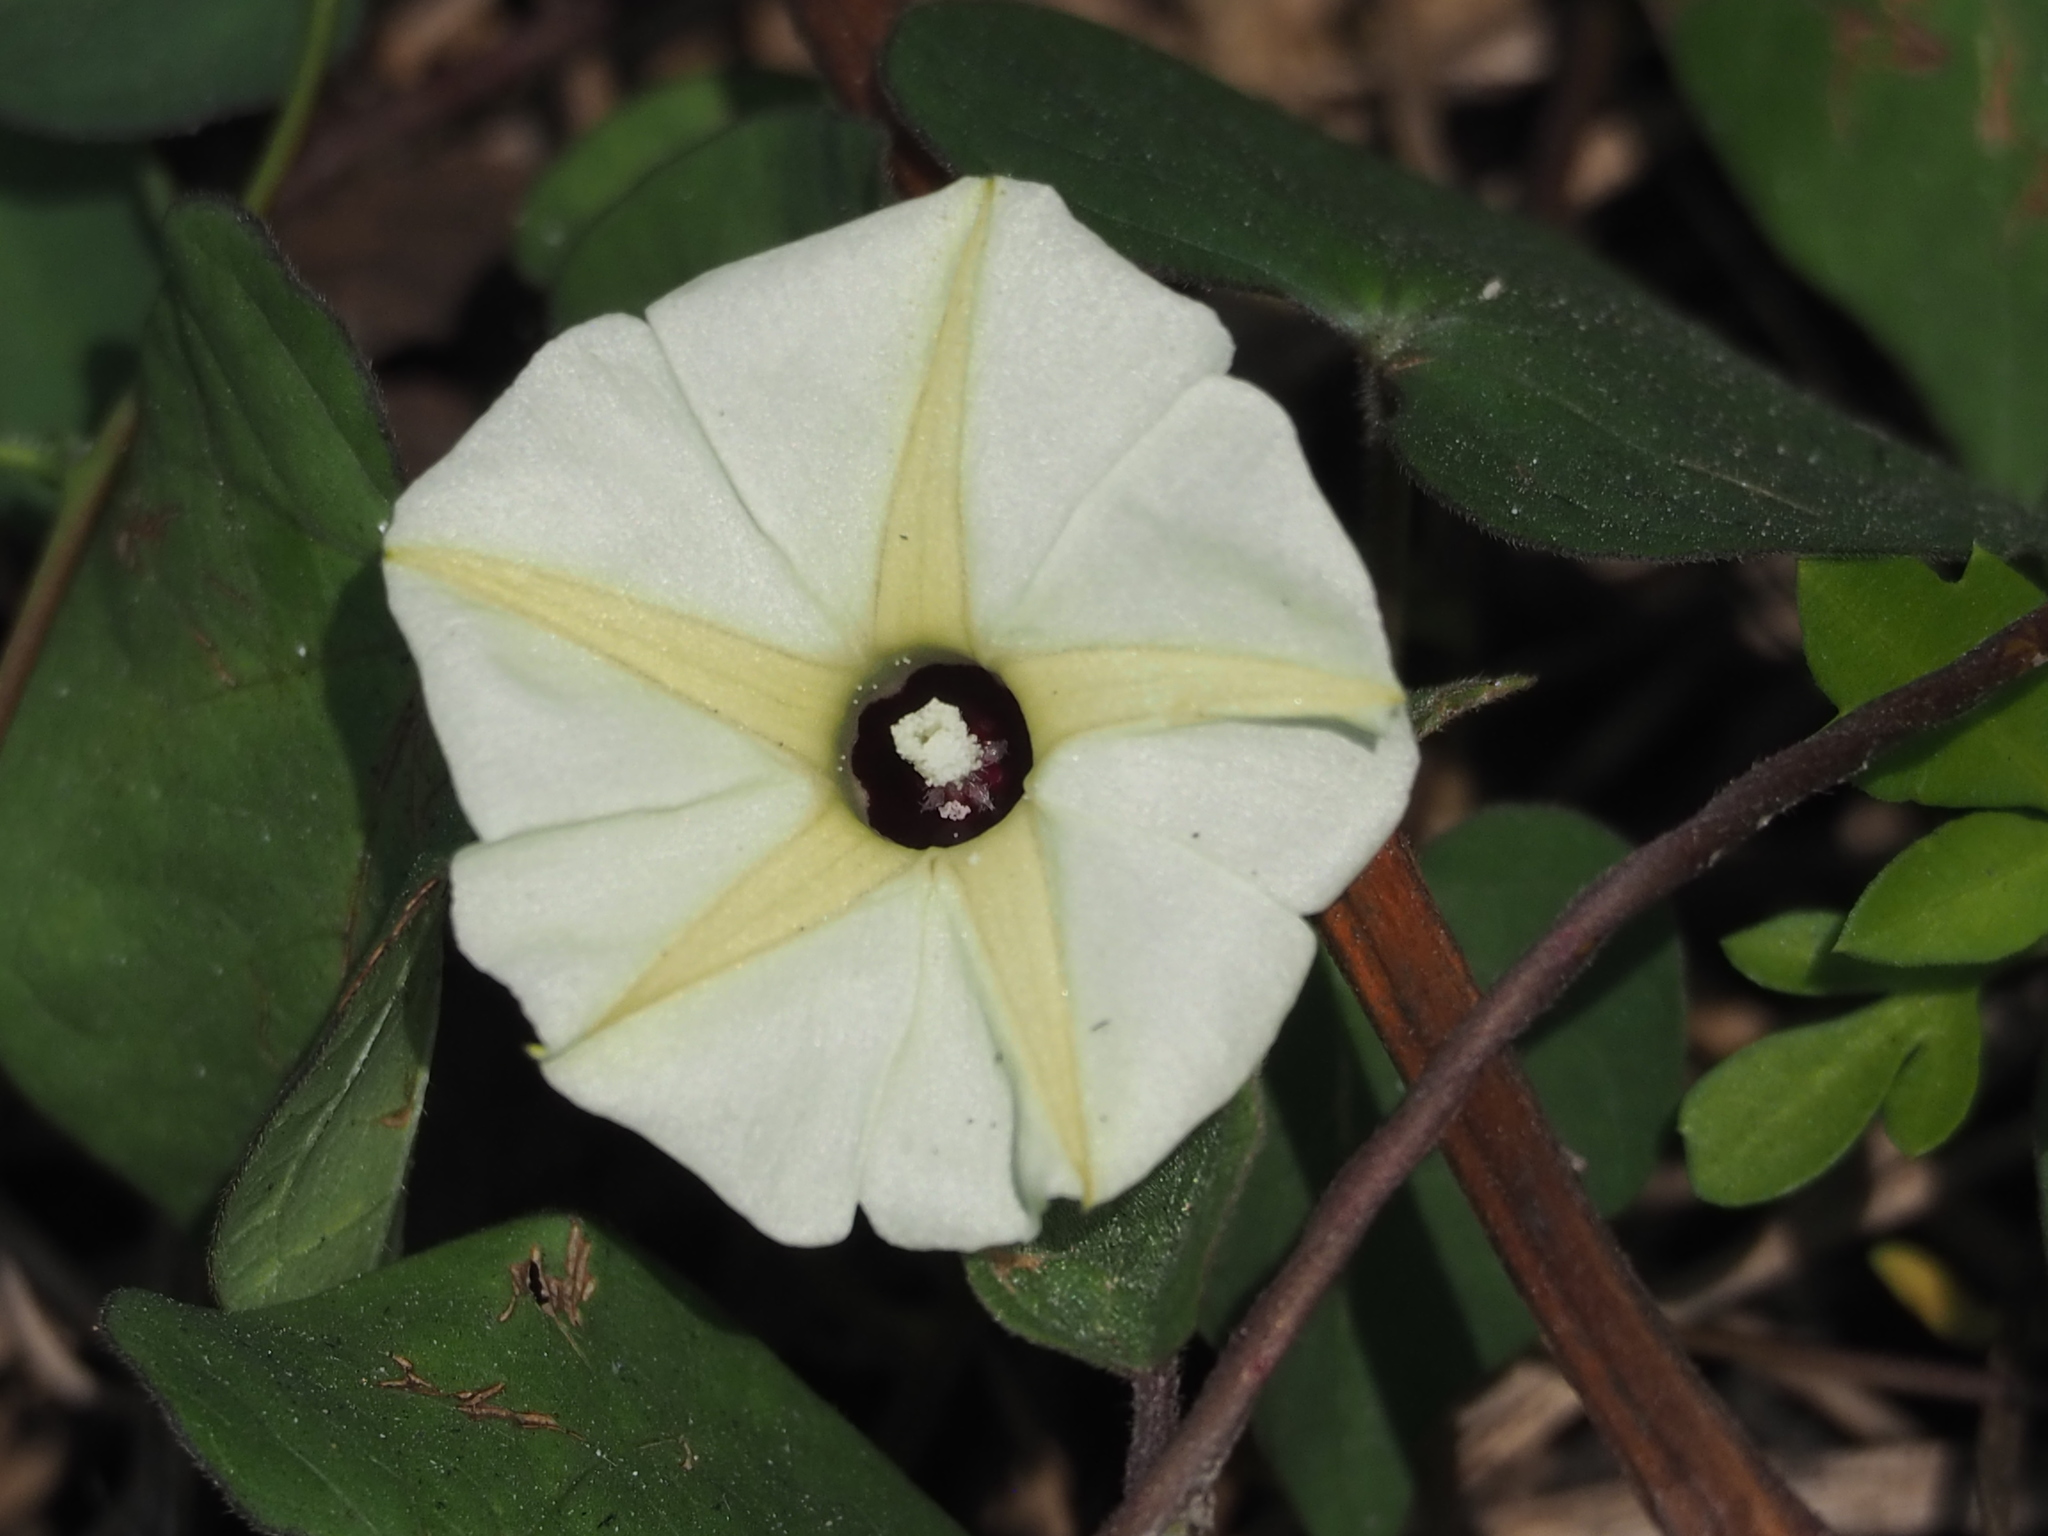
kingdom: Plantae
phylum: Tracheophyta
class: Magnoliopsida
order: Solanales
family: Convolvulaceae
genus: Ipomoea
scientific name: Ipomoea obscura
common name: Obscure morning-glory
